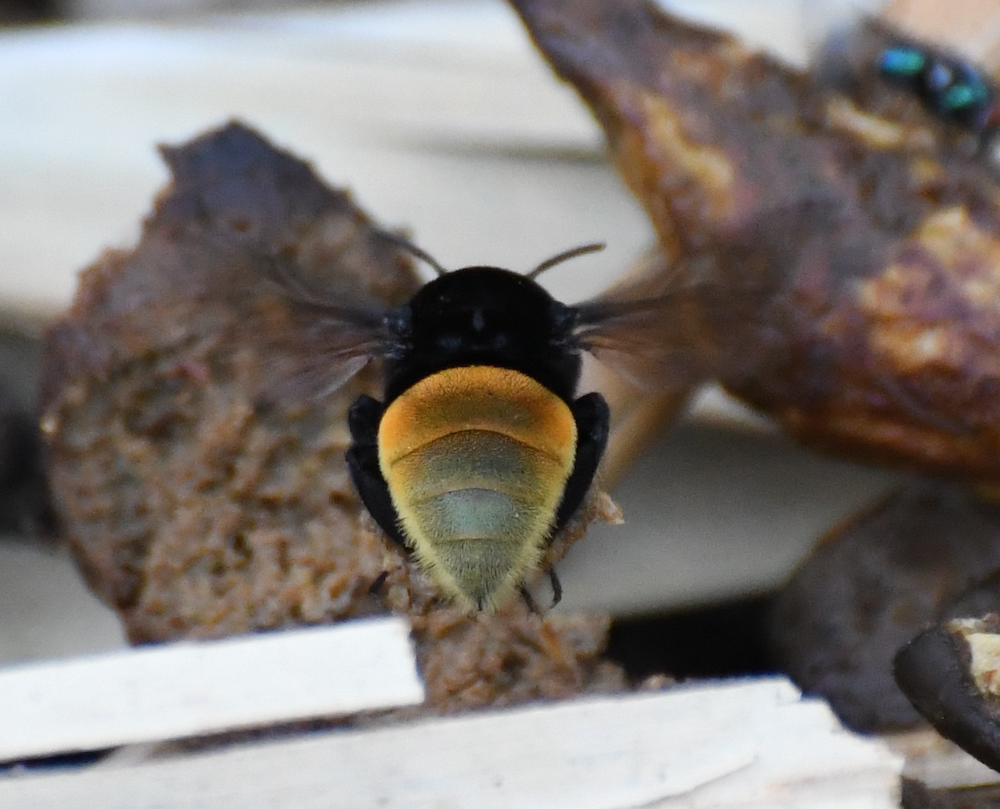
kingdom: Animalia
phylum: Arthropoda
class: Insecta
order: Hymenoptera
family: Apidae
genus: Eulaema
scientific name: Eulaema polychroma
